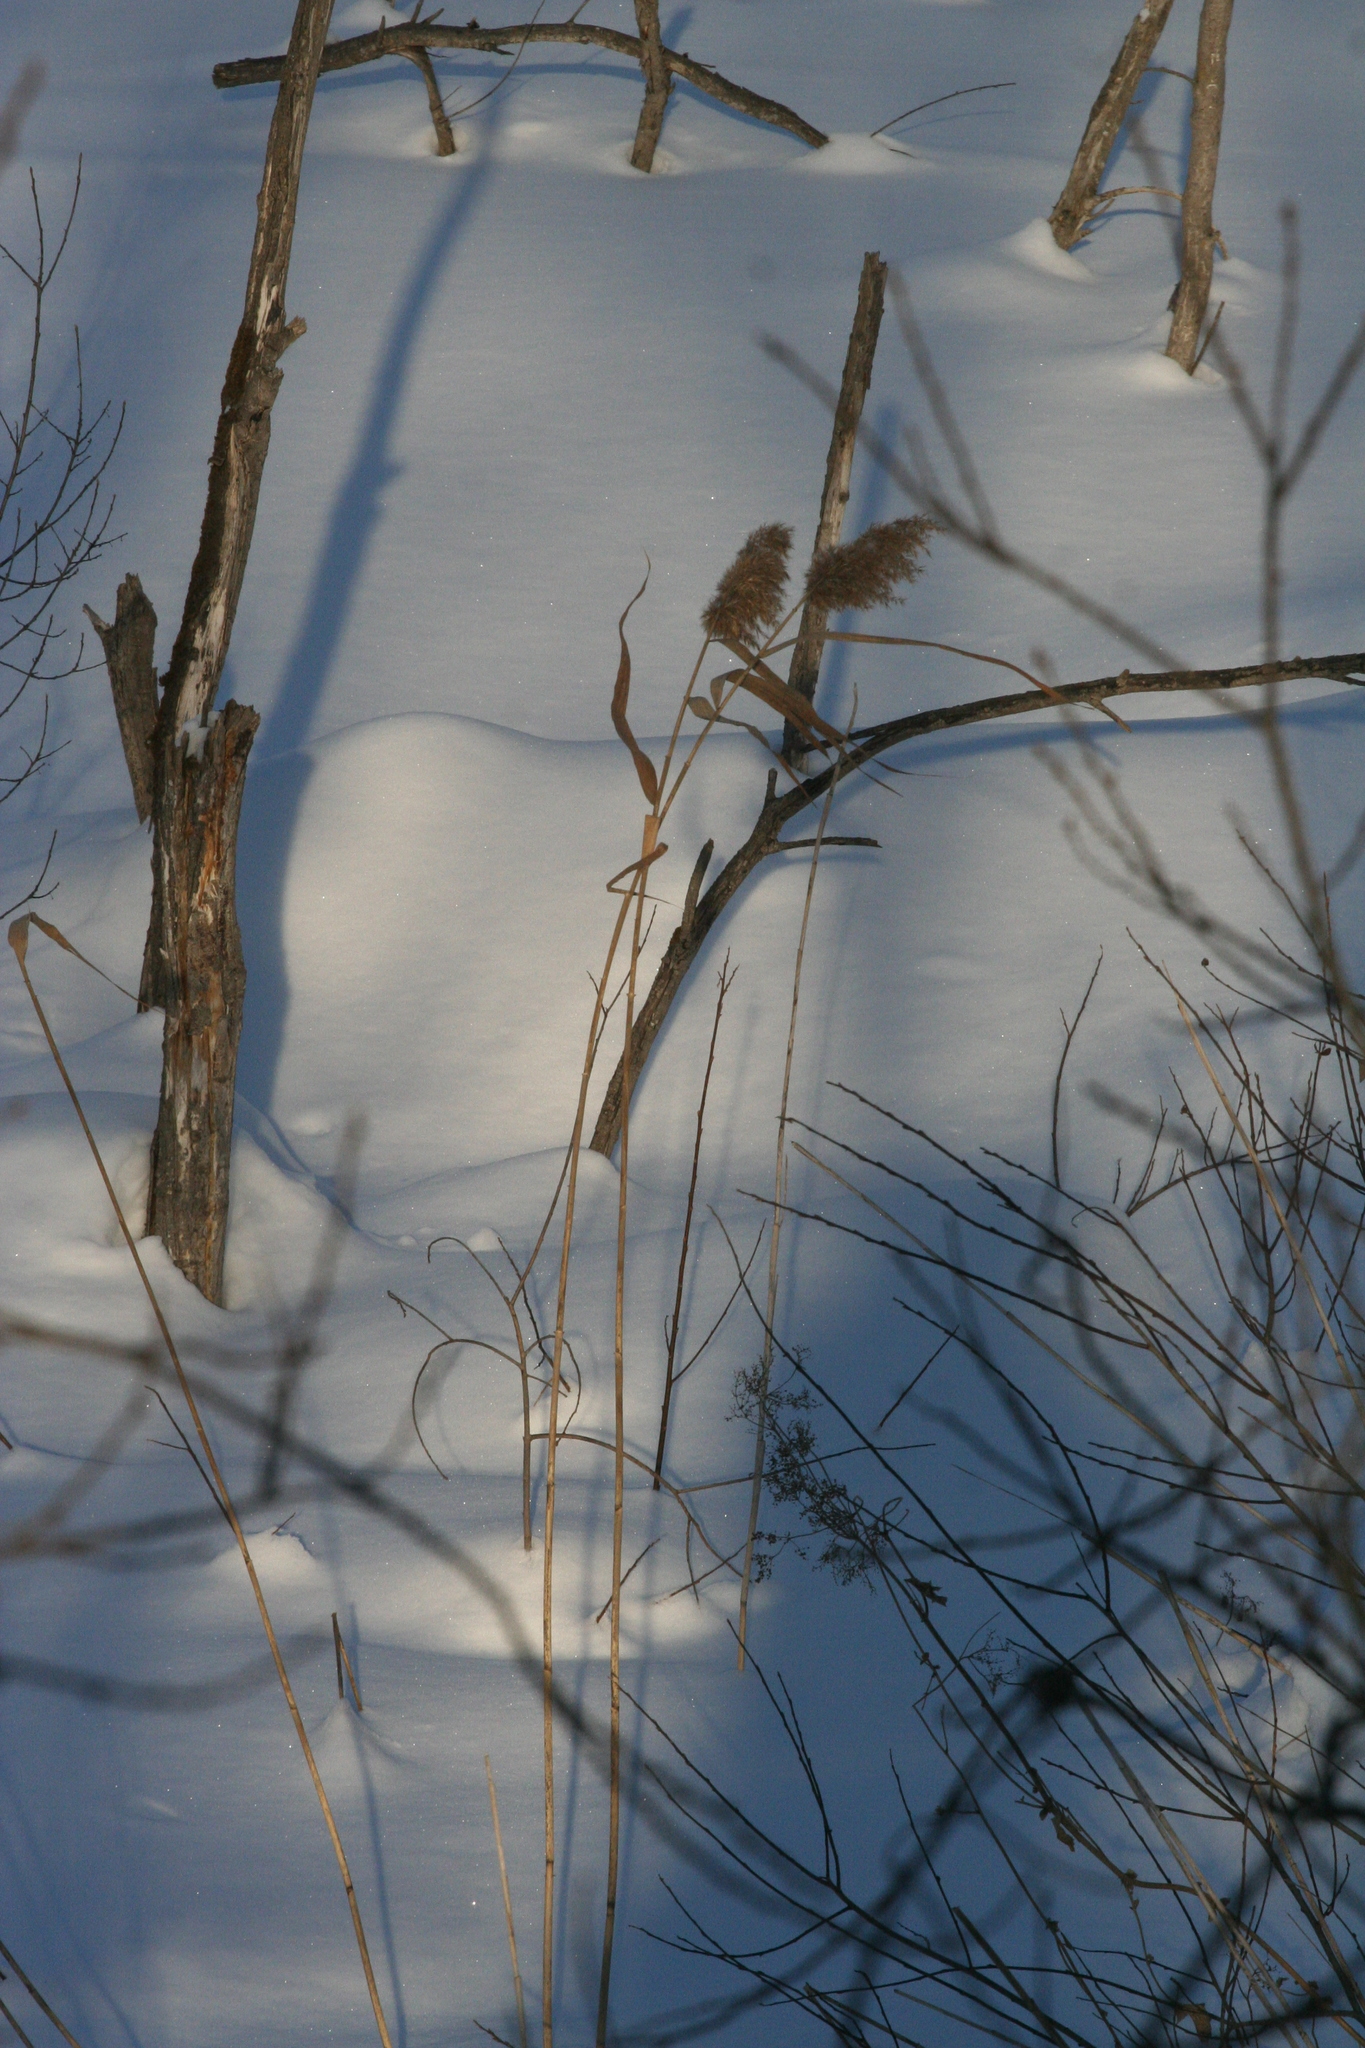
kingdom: Plantae
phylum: Tracheophyta
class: Liliopsida
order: Poales
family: Poaceae
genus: Phragmites
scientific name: Phragmites australis
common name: Common reed
